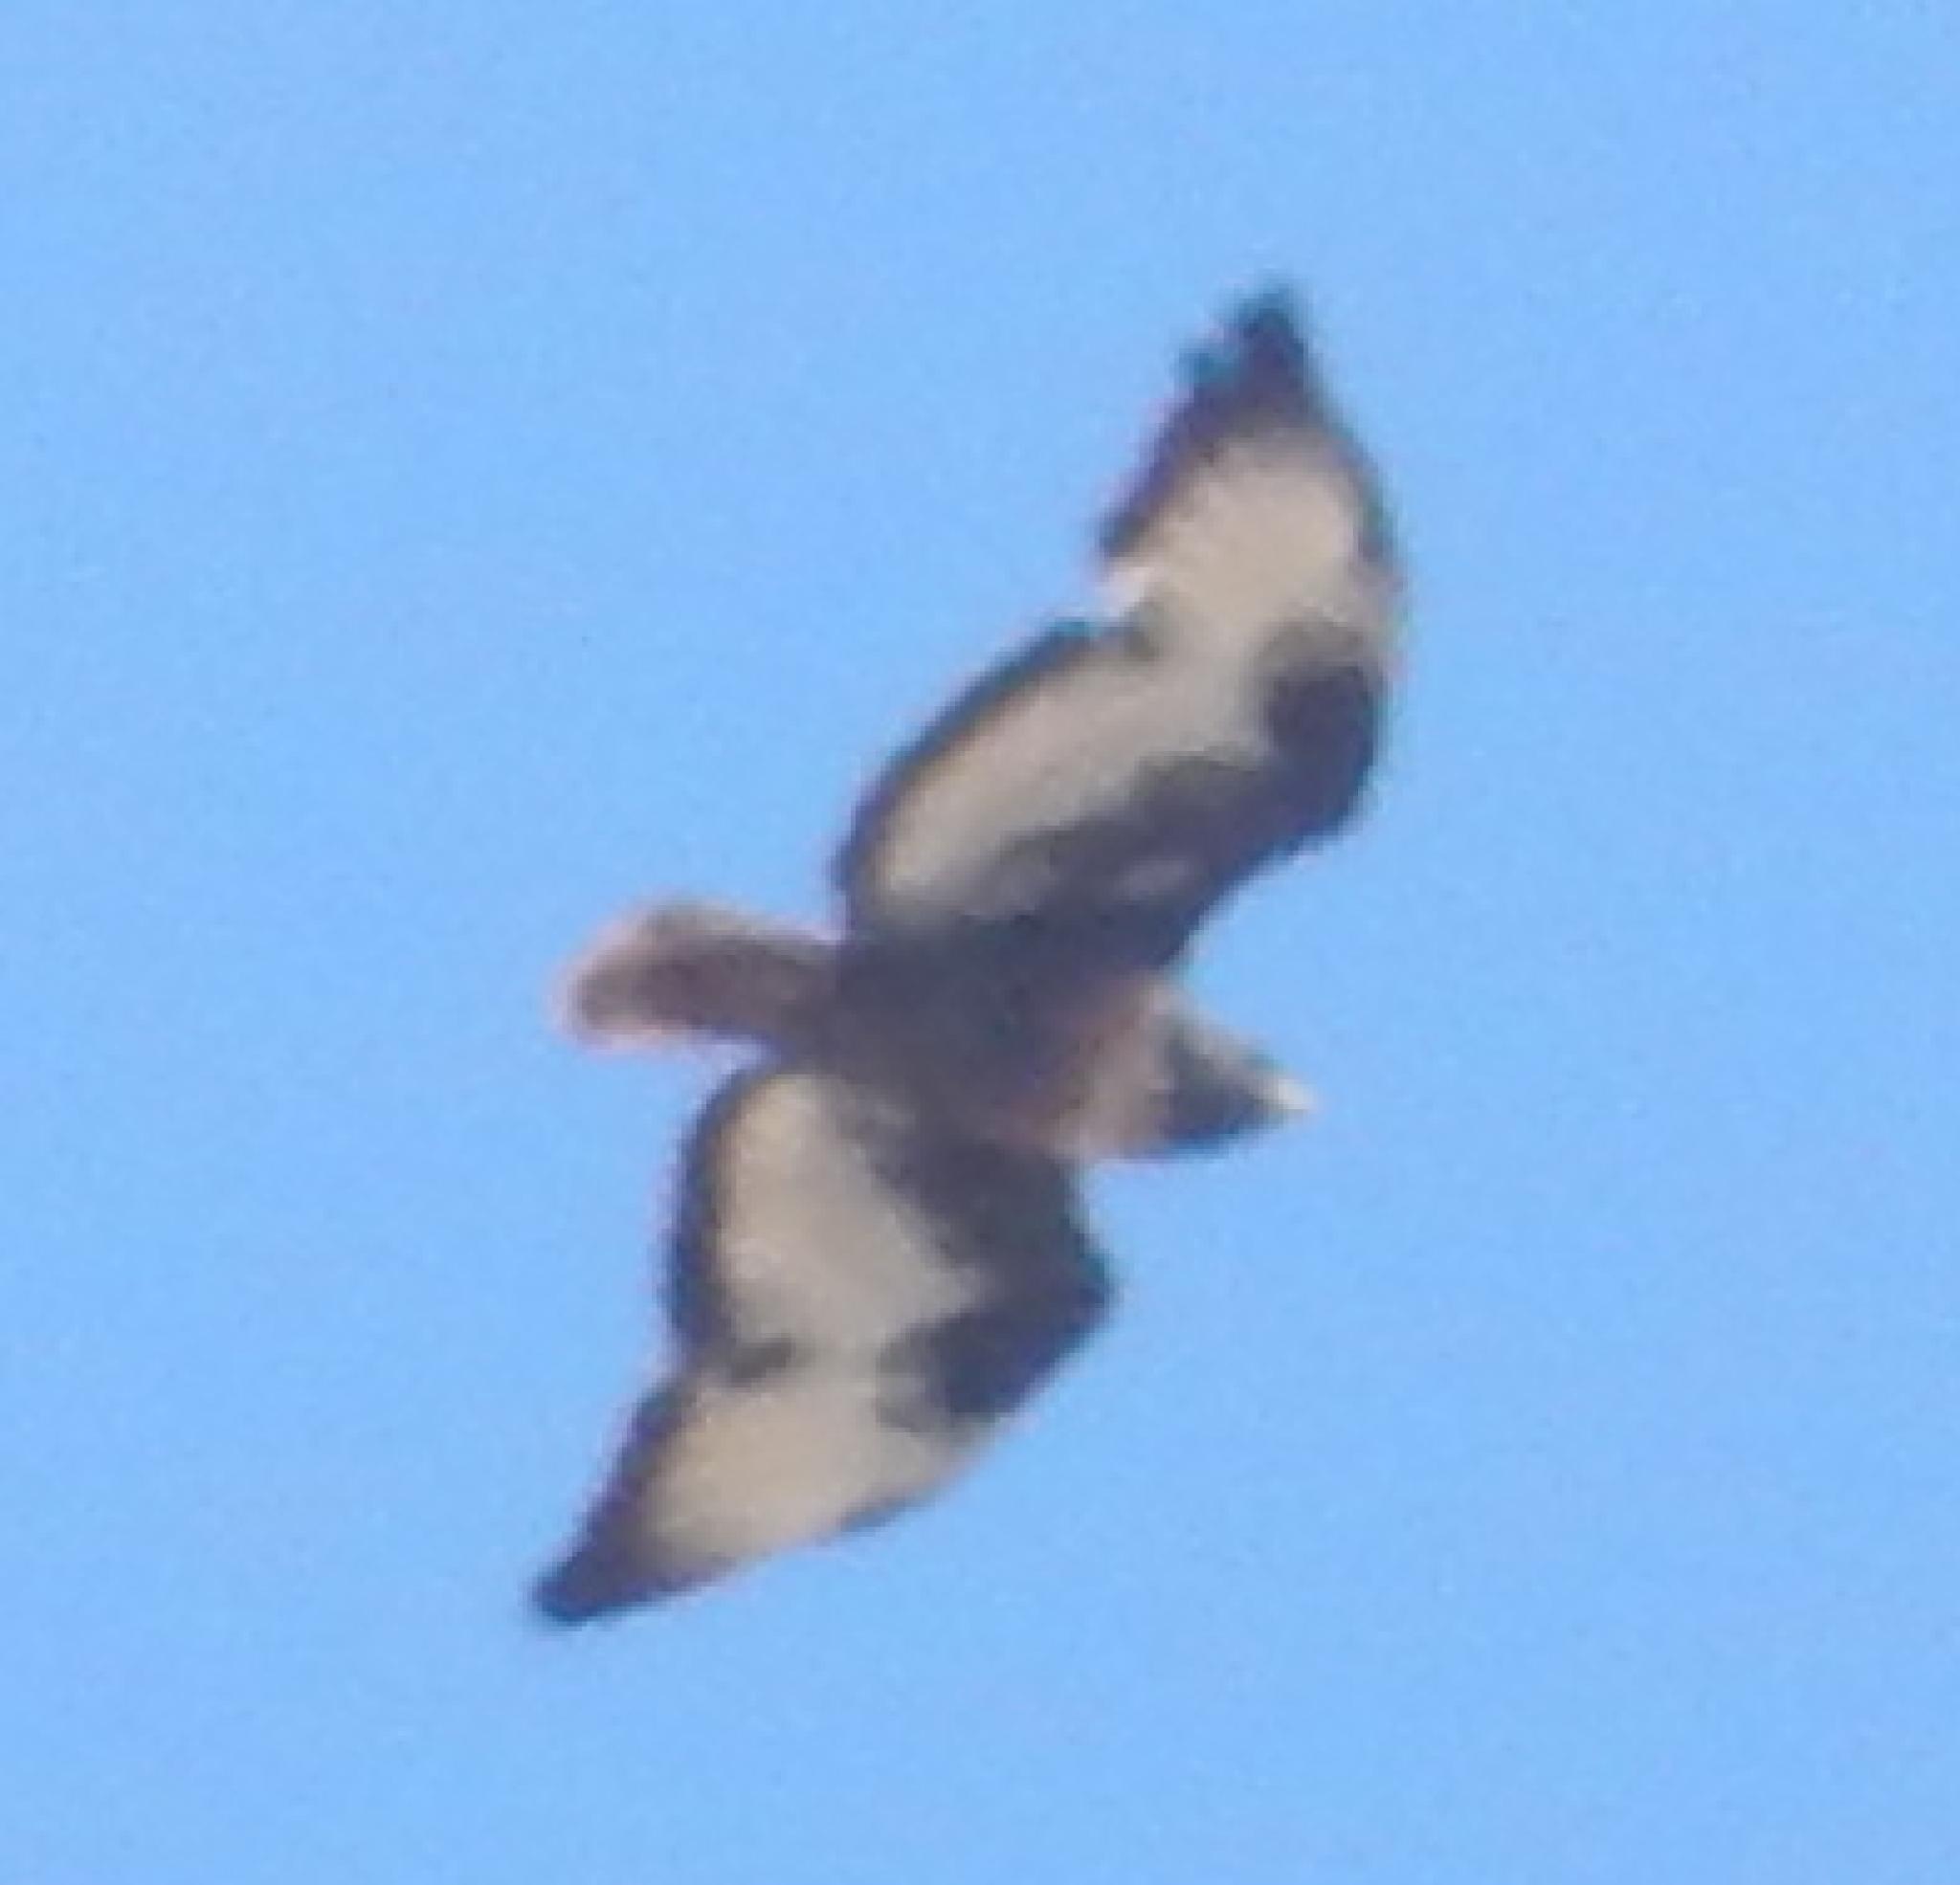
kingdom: Animalia
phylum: Chordata
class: Aves
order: Accipitriformes
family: Accipitridae
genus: Buteo
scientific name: Buteo rufofuscus
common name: Jackal buzzard
